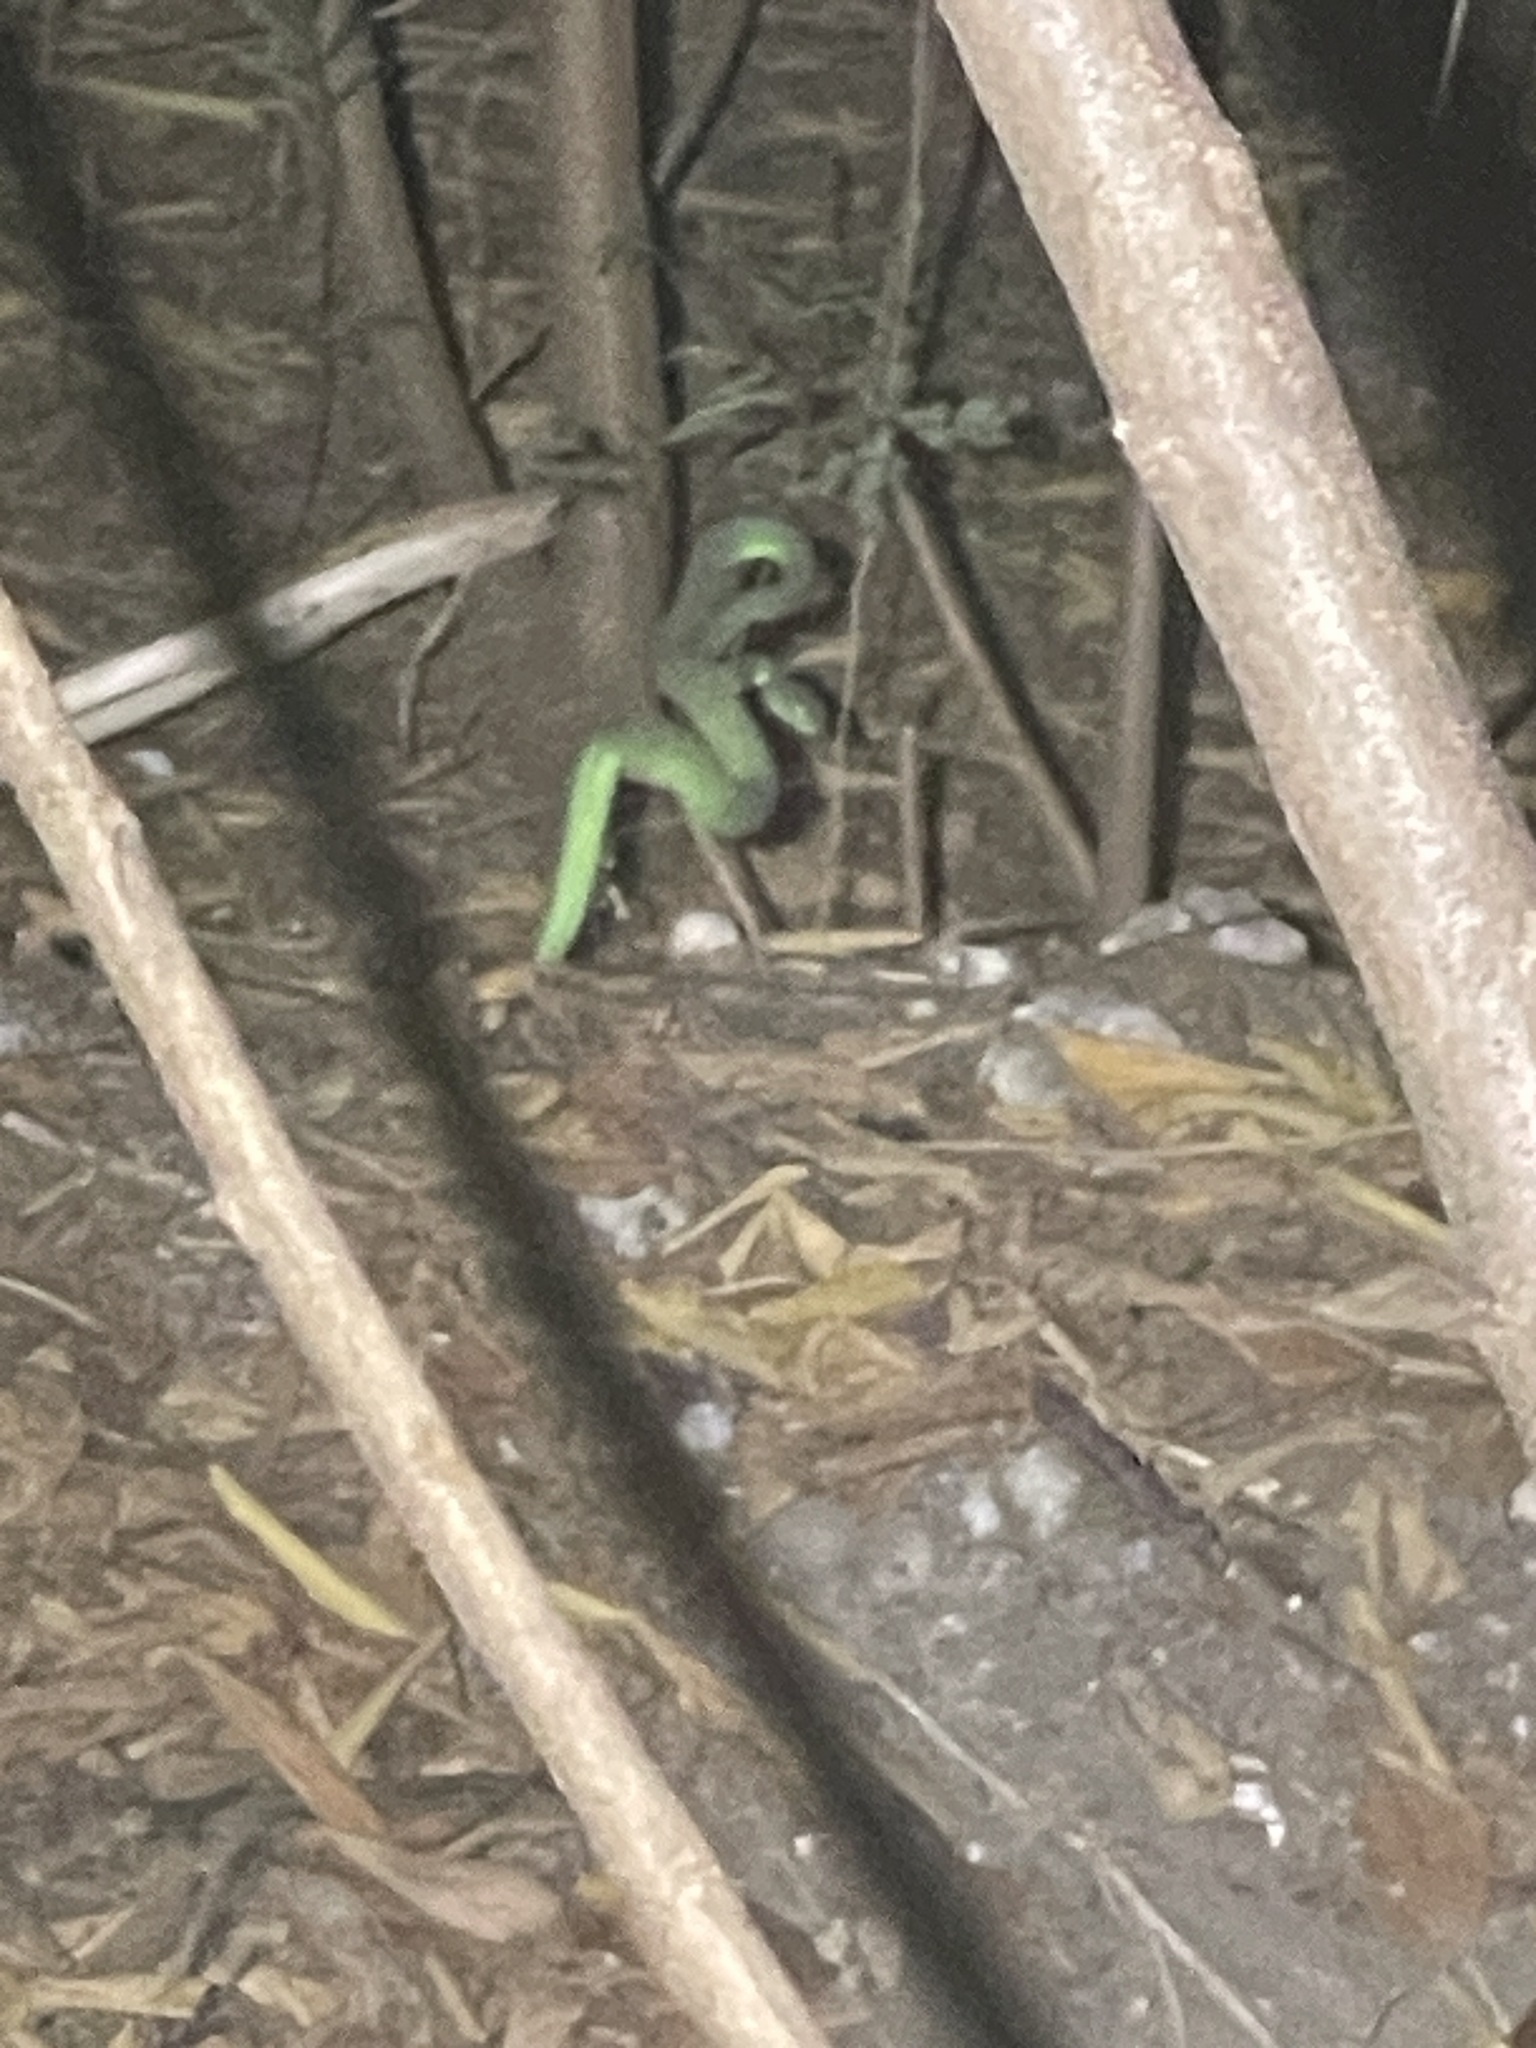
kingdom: Animalia
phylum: Chordata
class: Squamata
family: Viperidae
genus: Trimeresurus
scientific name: Trimeresurus macrops
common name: Kramer's pit viper
